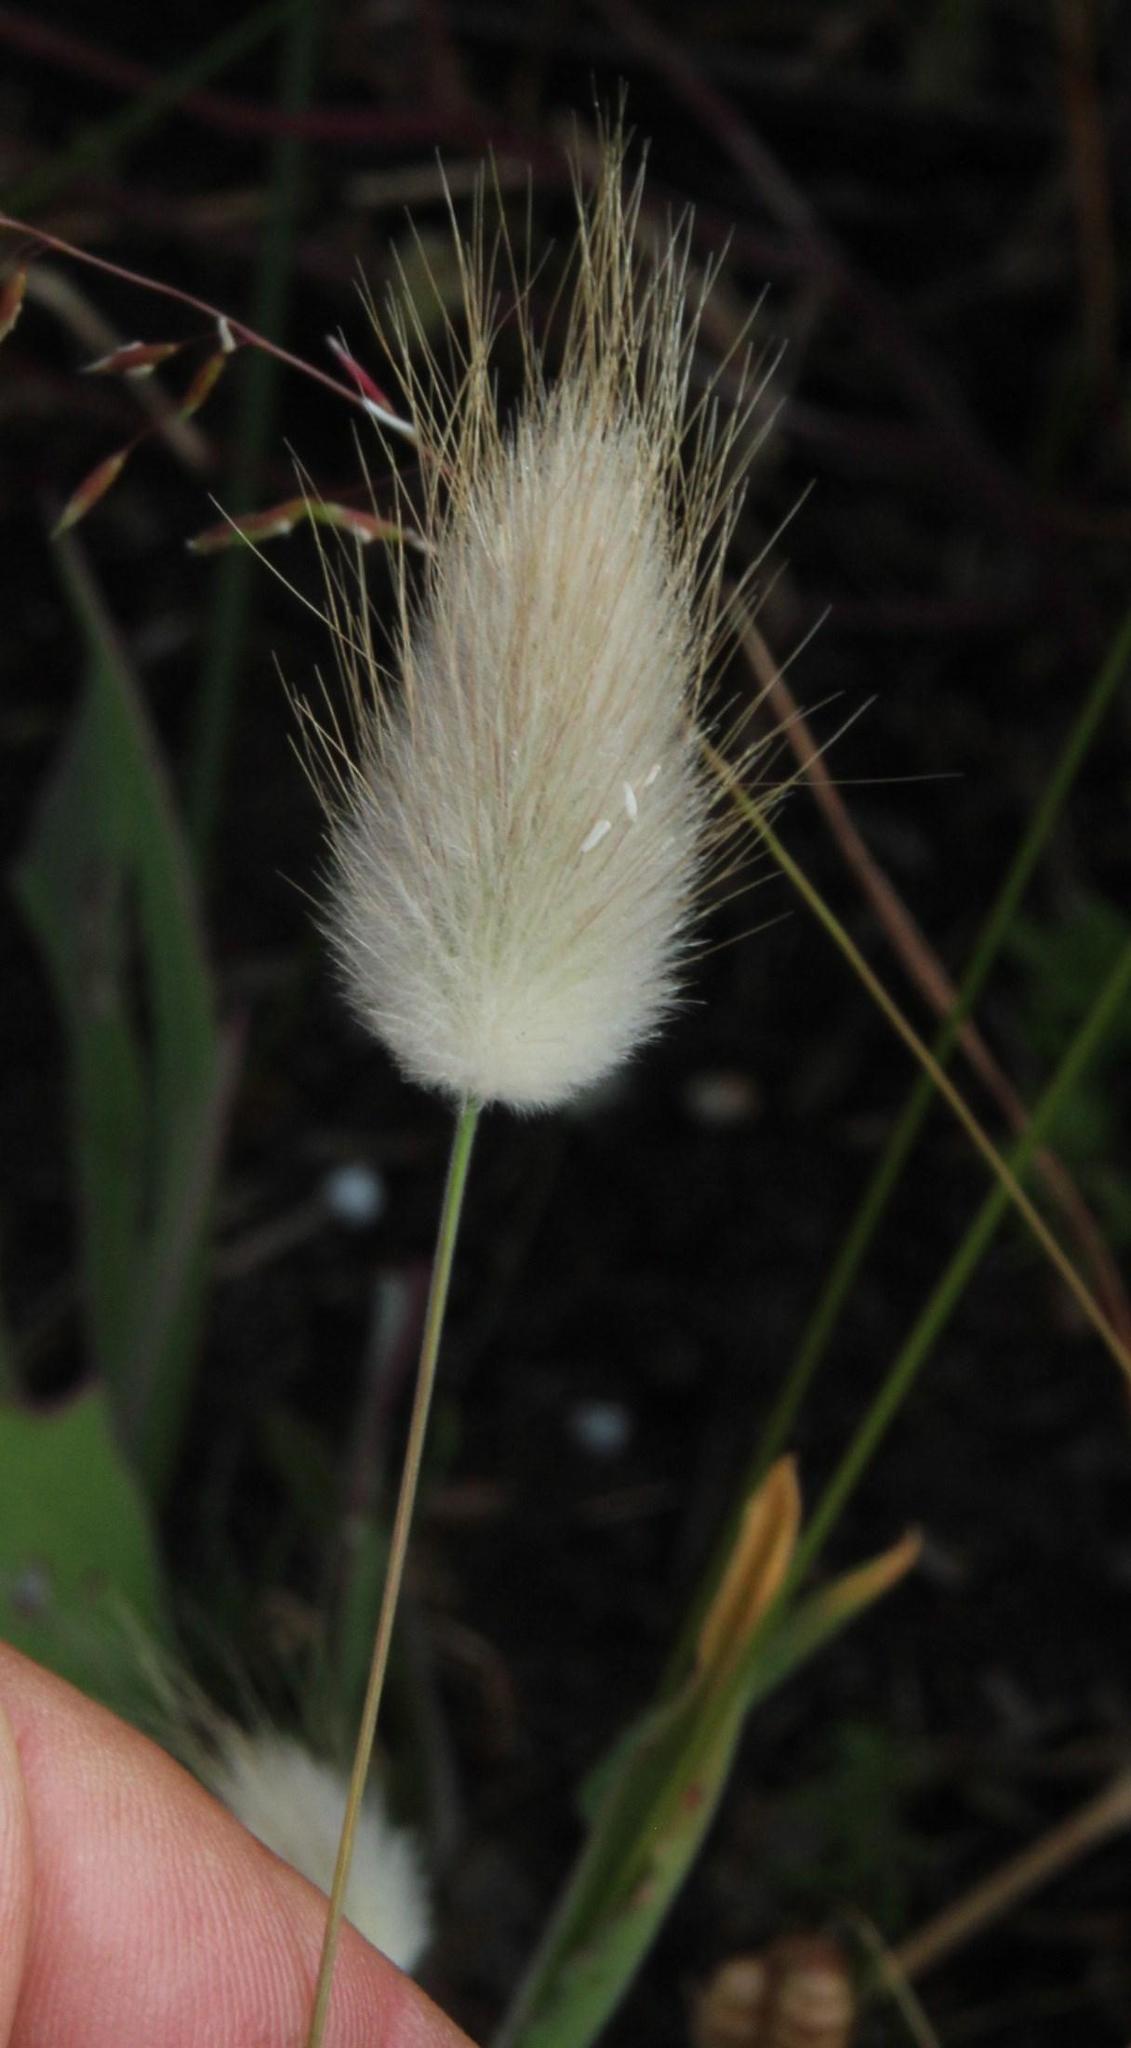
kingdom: Plantae
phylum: Tracheophyta
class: Liliopsida
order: Poales
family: Poaceae
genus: Lagurus
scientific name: Lagurus ovatus
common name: Hare's-tail
